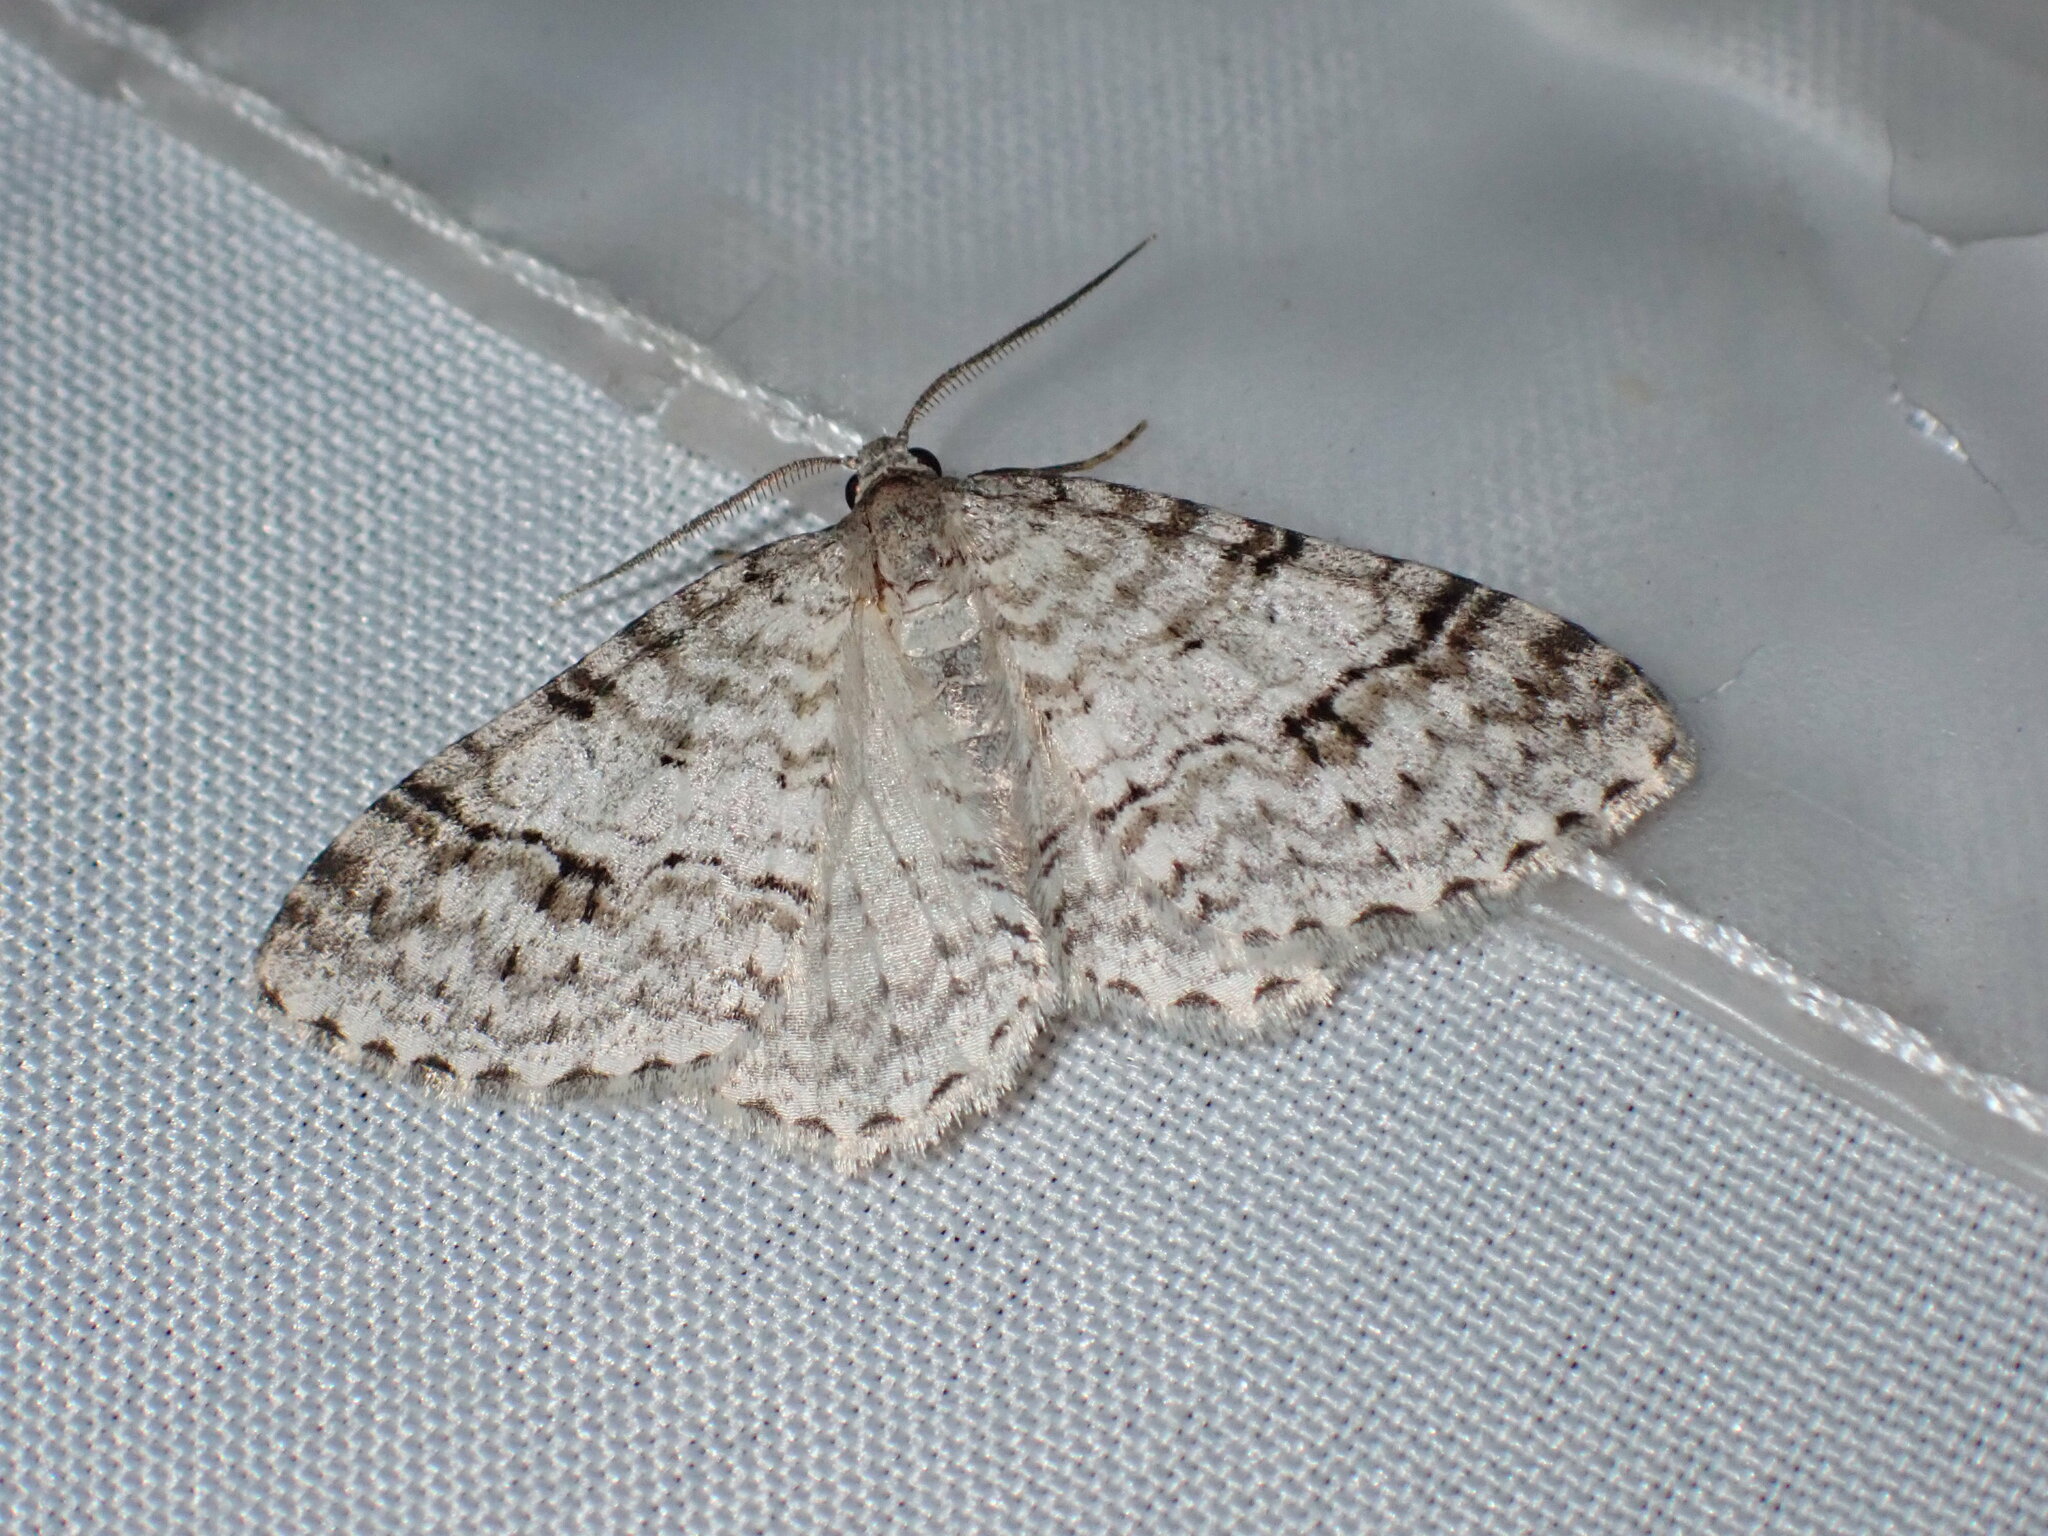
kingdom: Animalia
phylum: Arthropoda
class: Insecta
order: Lepidoptera
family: Geometridae
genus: Venusia
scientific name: Venusia cambrica
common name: Welsh wave
